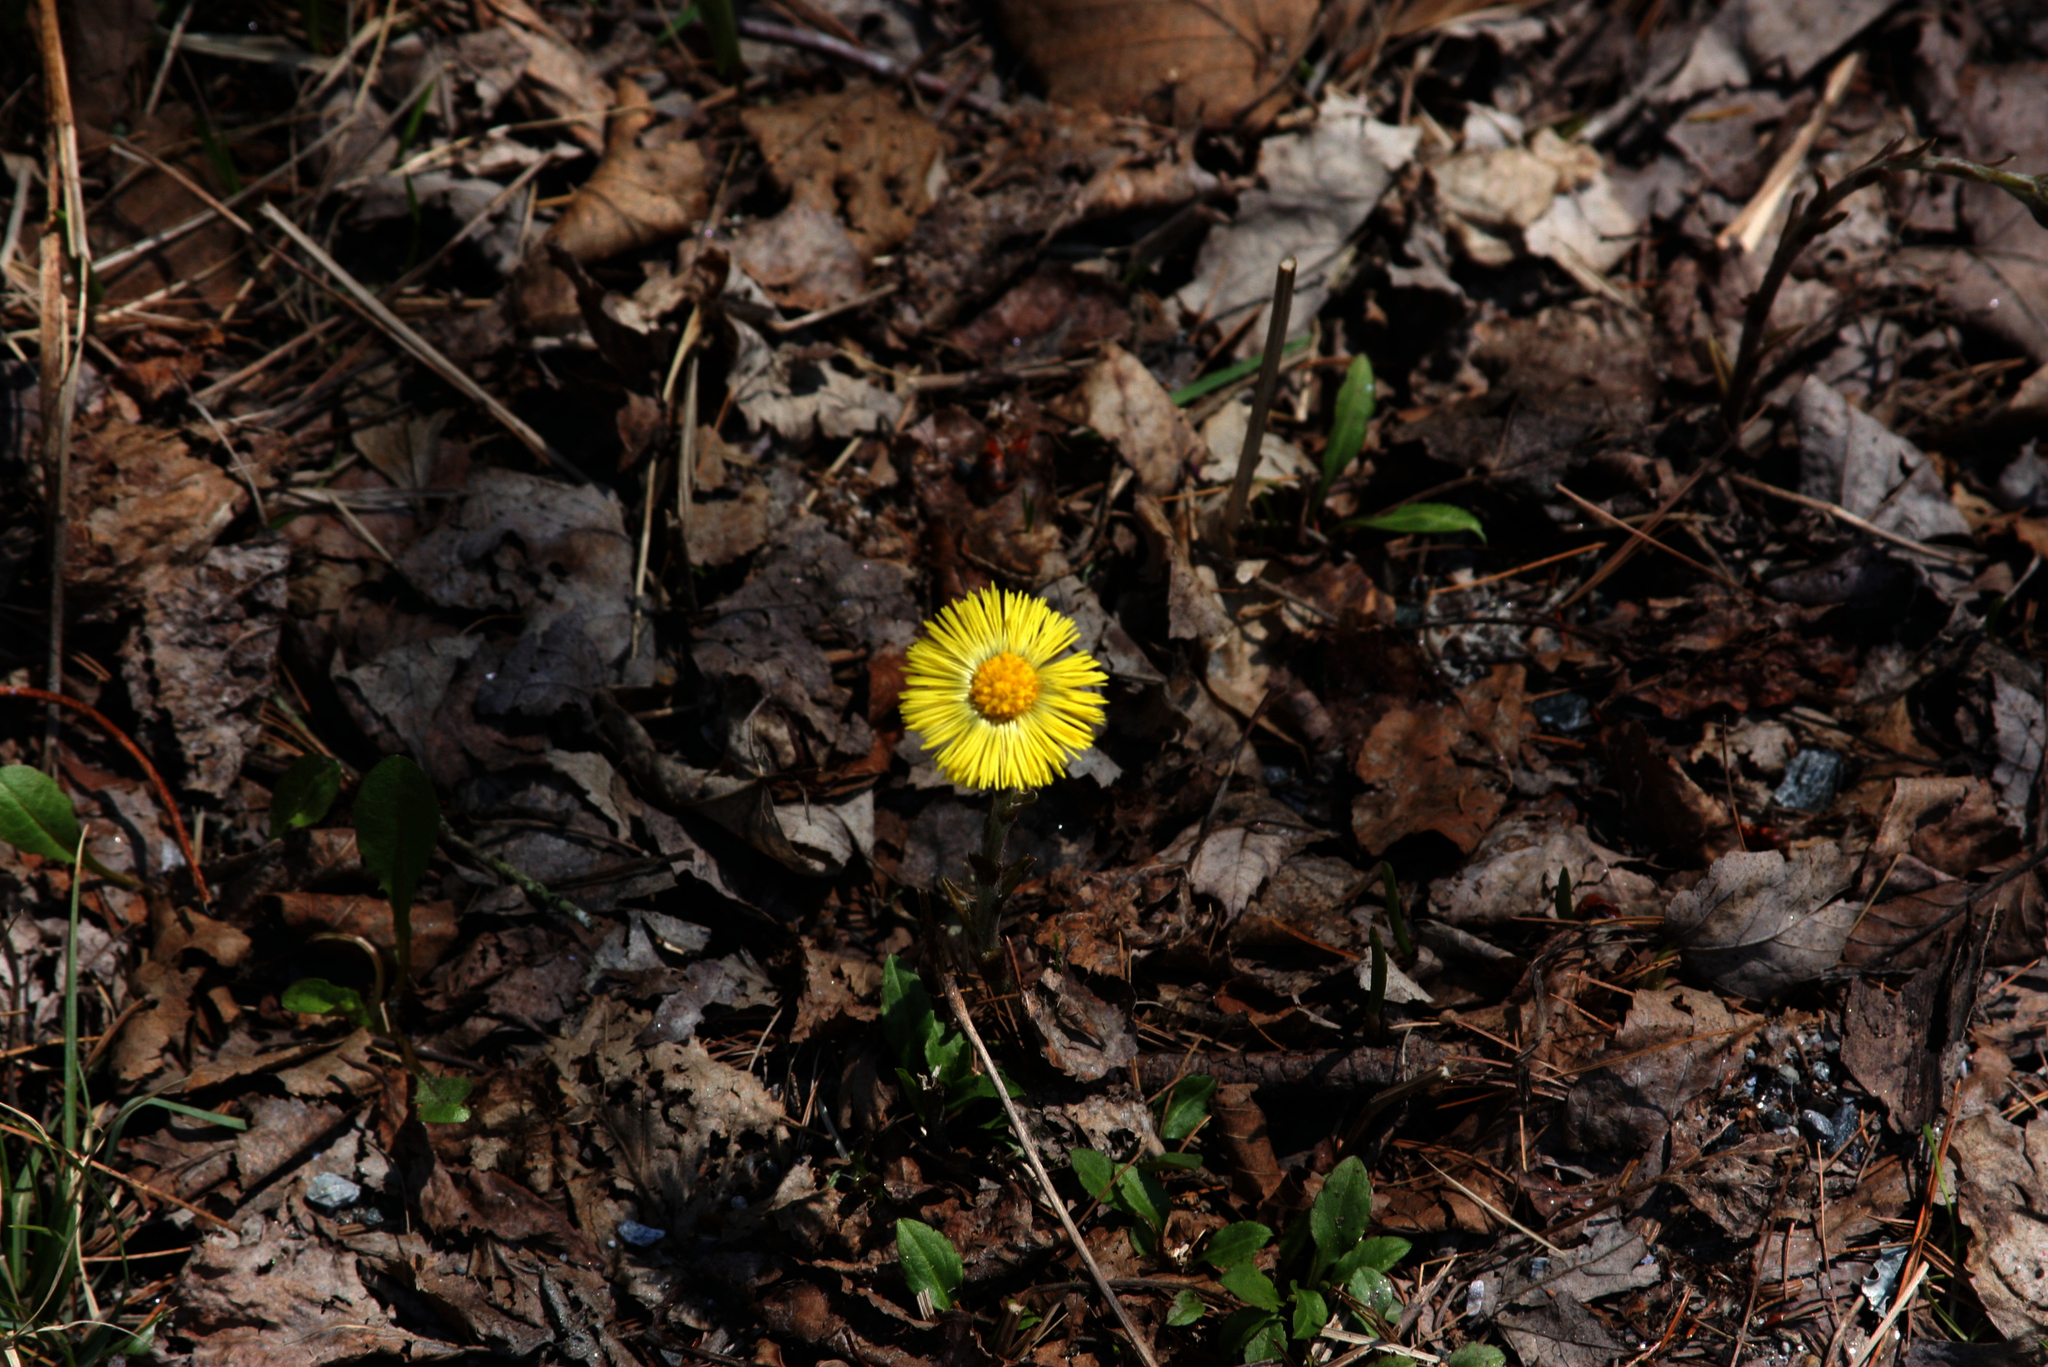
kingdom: Plantae
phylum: Tracheophyta
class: Magnoliopsida
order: Asterales
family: Asteraceae
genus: Tussilago
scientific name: Tussilago farfara
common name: Coltsfoot
